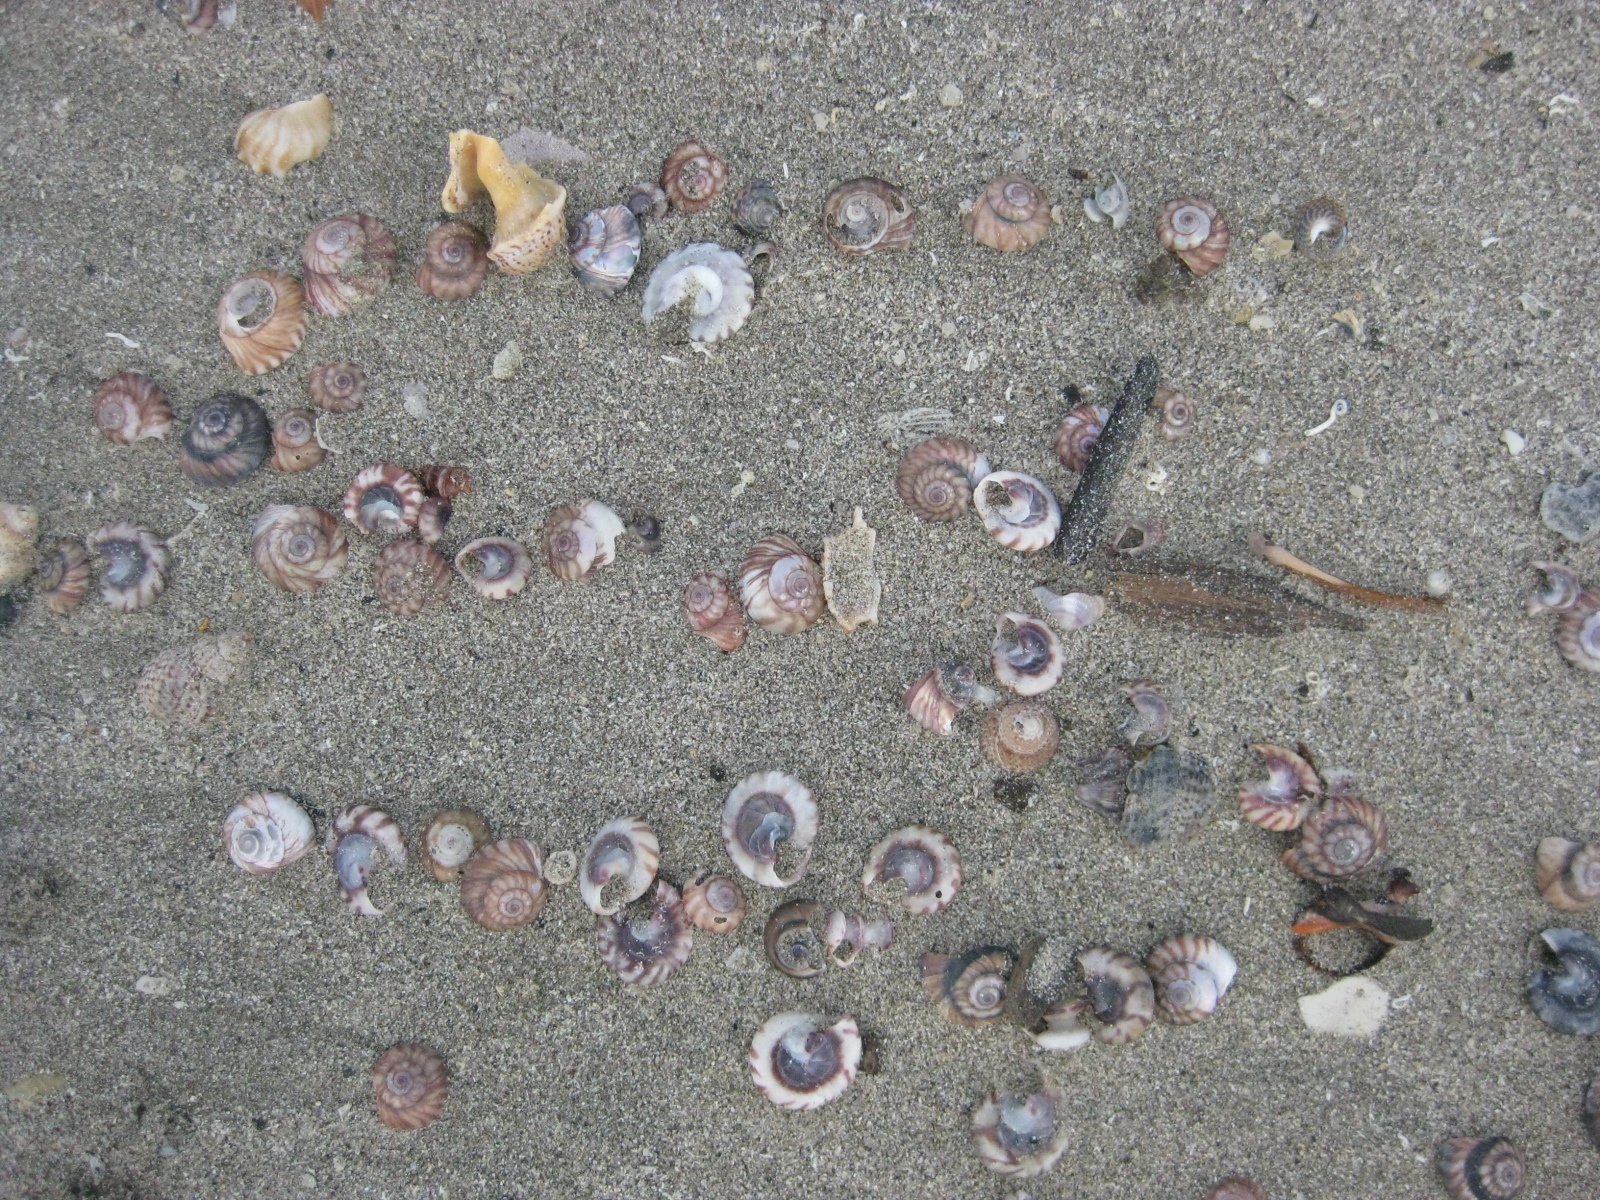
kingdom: Animalia
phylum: Mollusca
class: Gastropoda
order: Trochida
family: Trochidae
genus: Zethalia
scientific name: Zethalia zelandica
